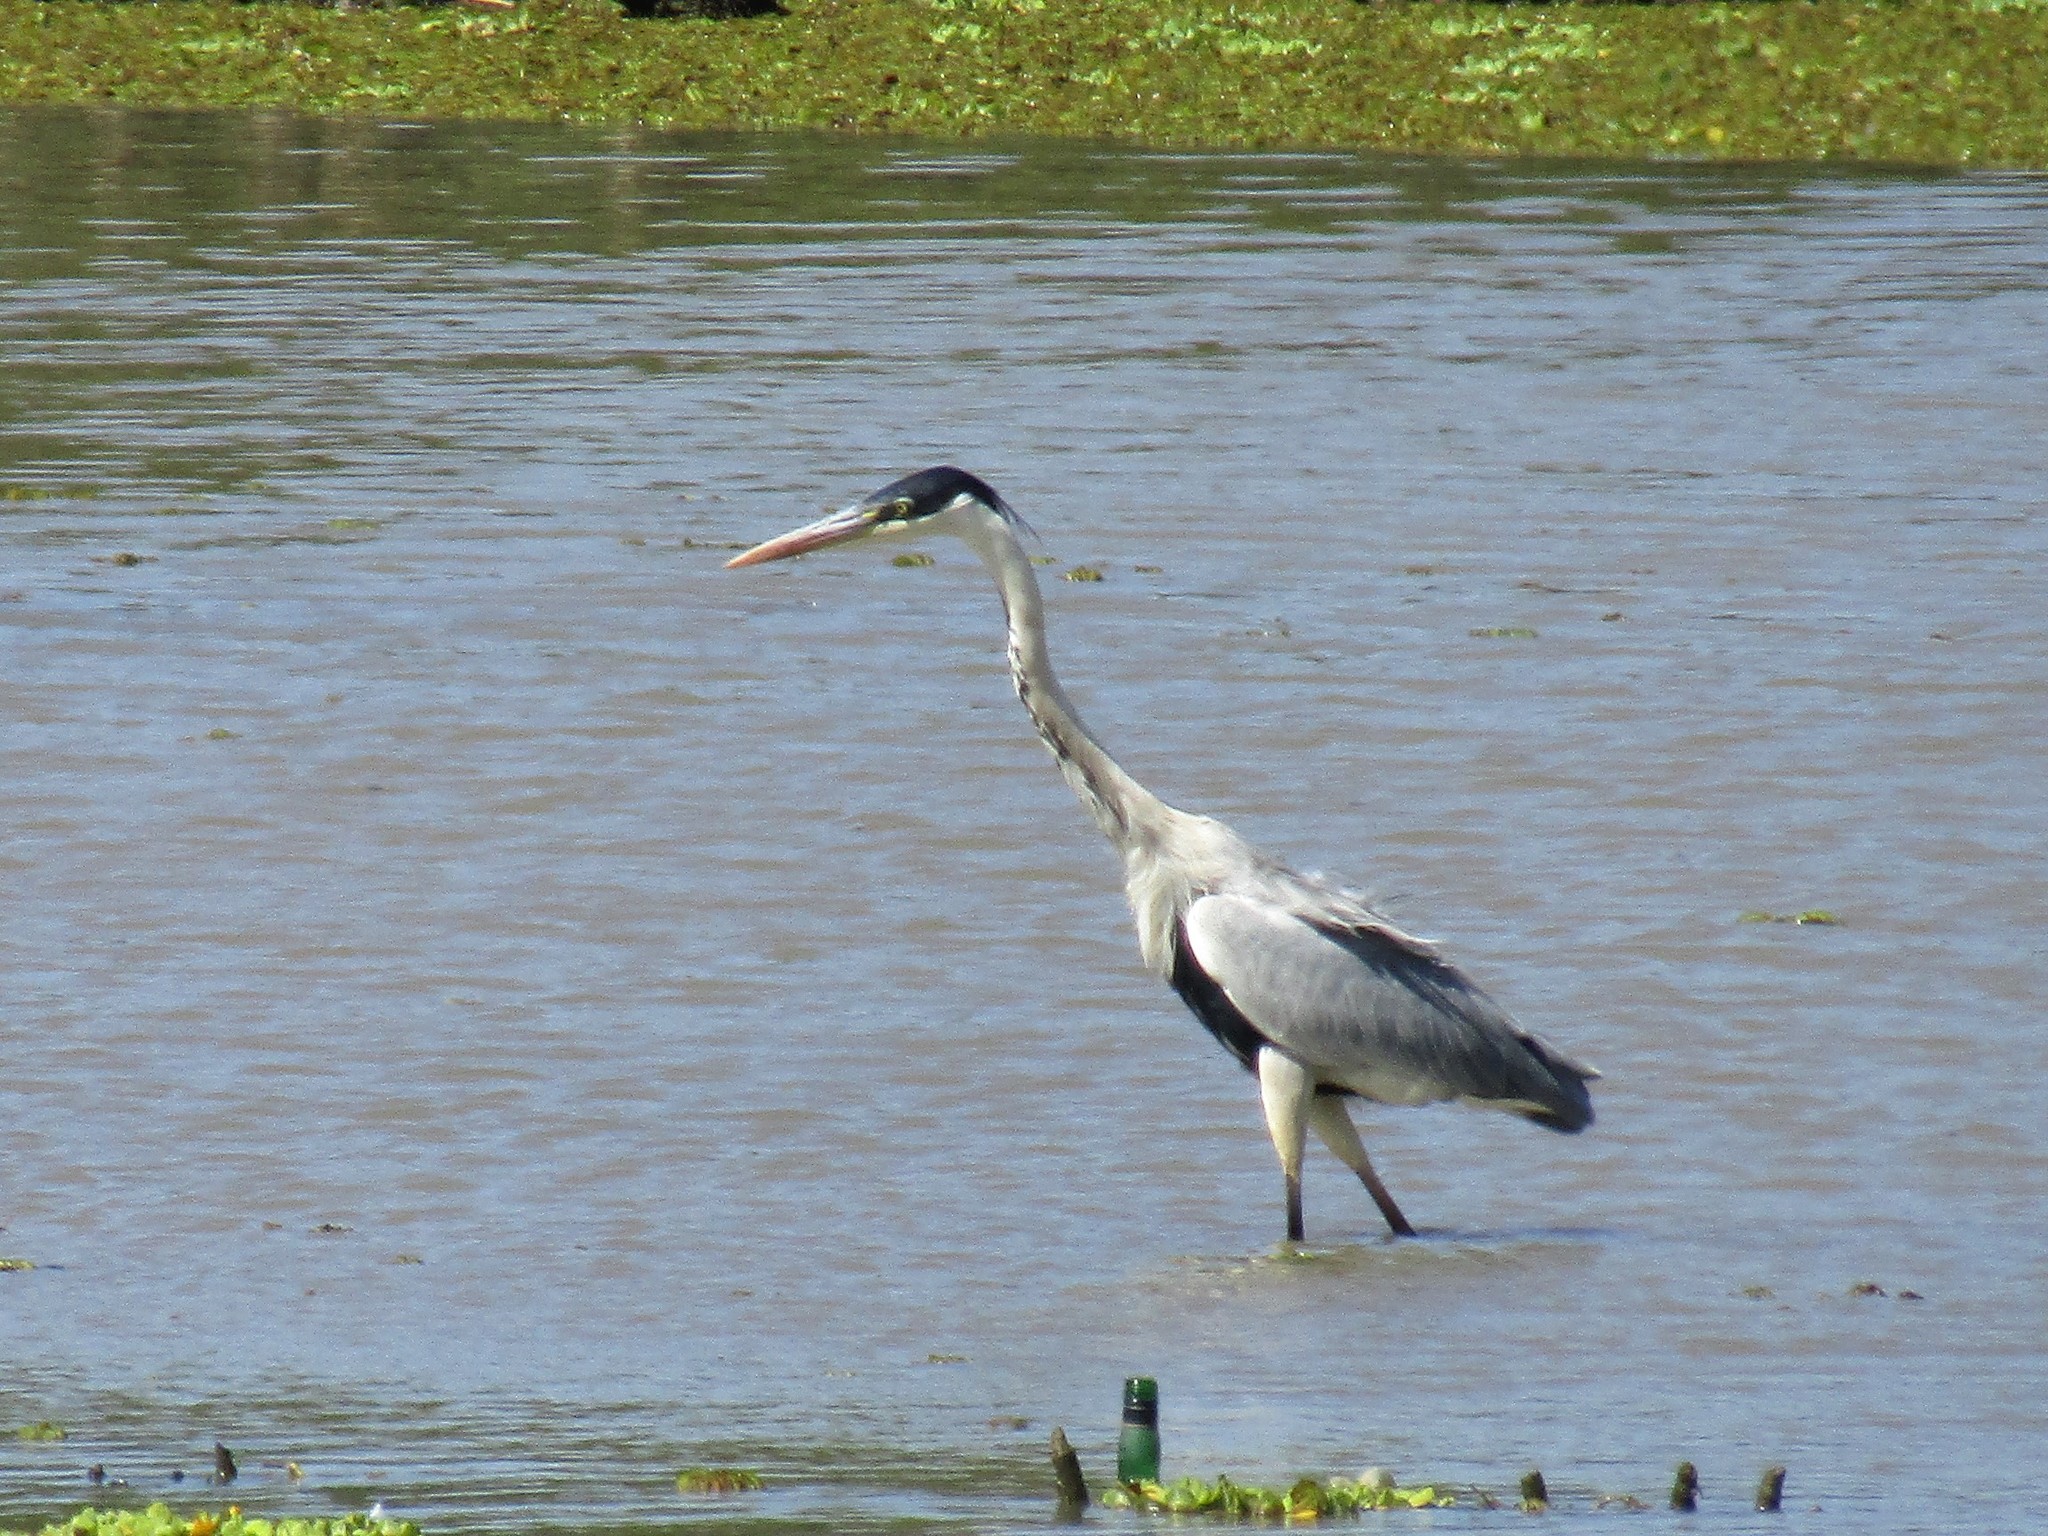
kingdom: Animalia
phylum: Chordata
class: Aves
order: Pelecaniformes
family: Ardeidae
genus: Ardea
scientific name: Ardea cocoi
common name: Cocoi heron
